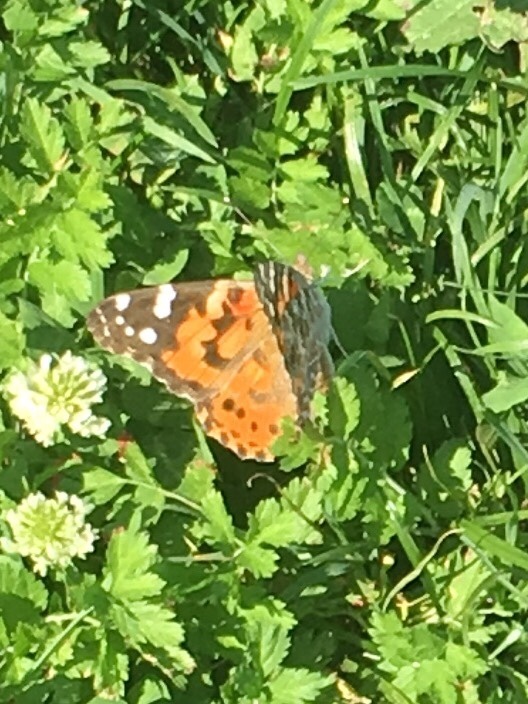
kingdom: Animalia
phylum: Arthropoda
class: Insecta
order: Lepidoptera
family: Nymphalidae
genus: Vanessa
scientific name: Vanessa cardui
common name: Painted lady
